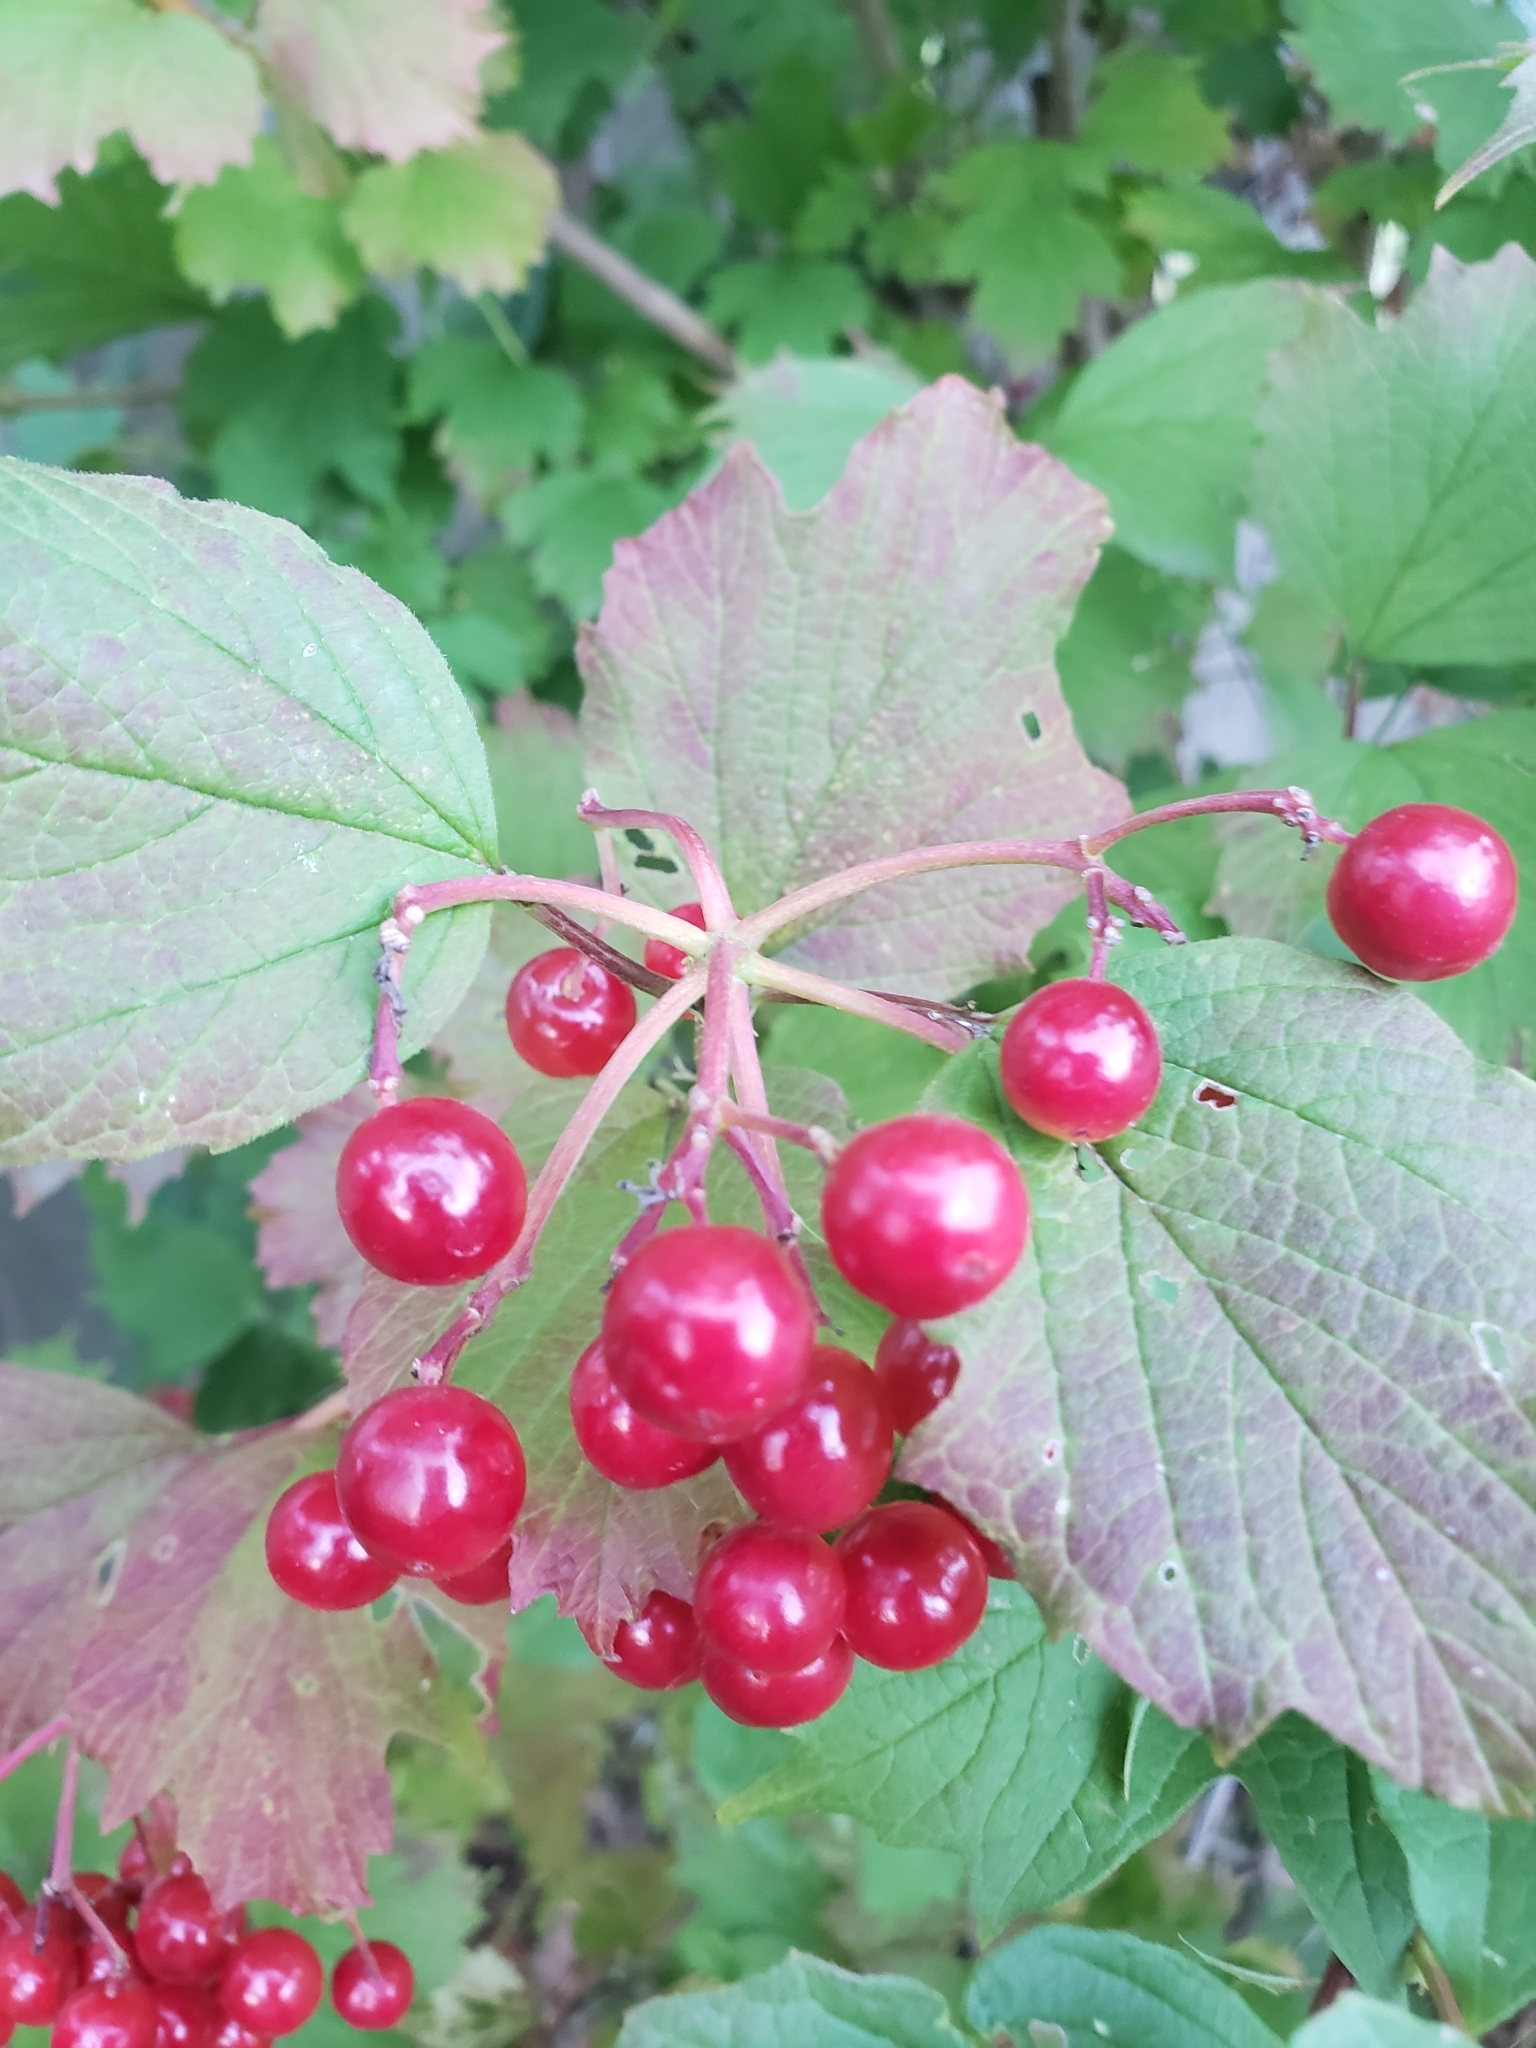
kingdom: Plantae
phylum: Tracheophyta
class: Magnoliopsida
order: Dipsacales
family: Viburnaceae
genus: Viburnum
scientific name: Viburnum opulus
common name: Guelder-rose
